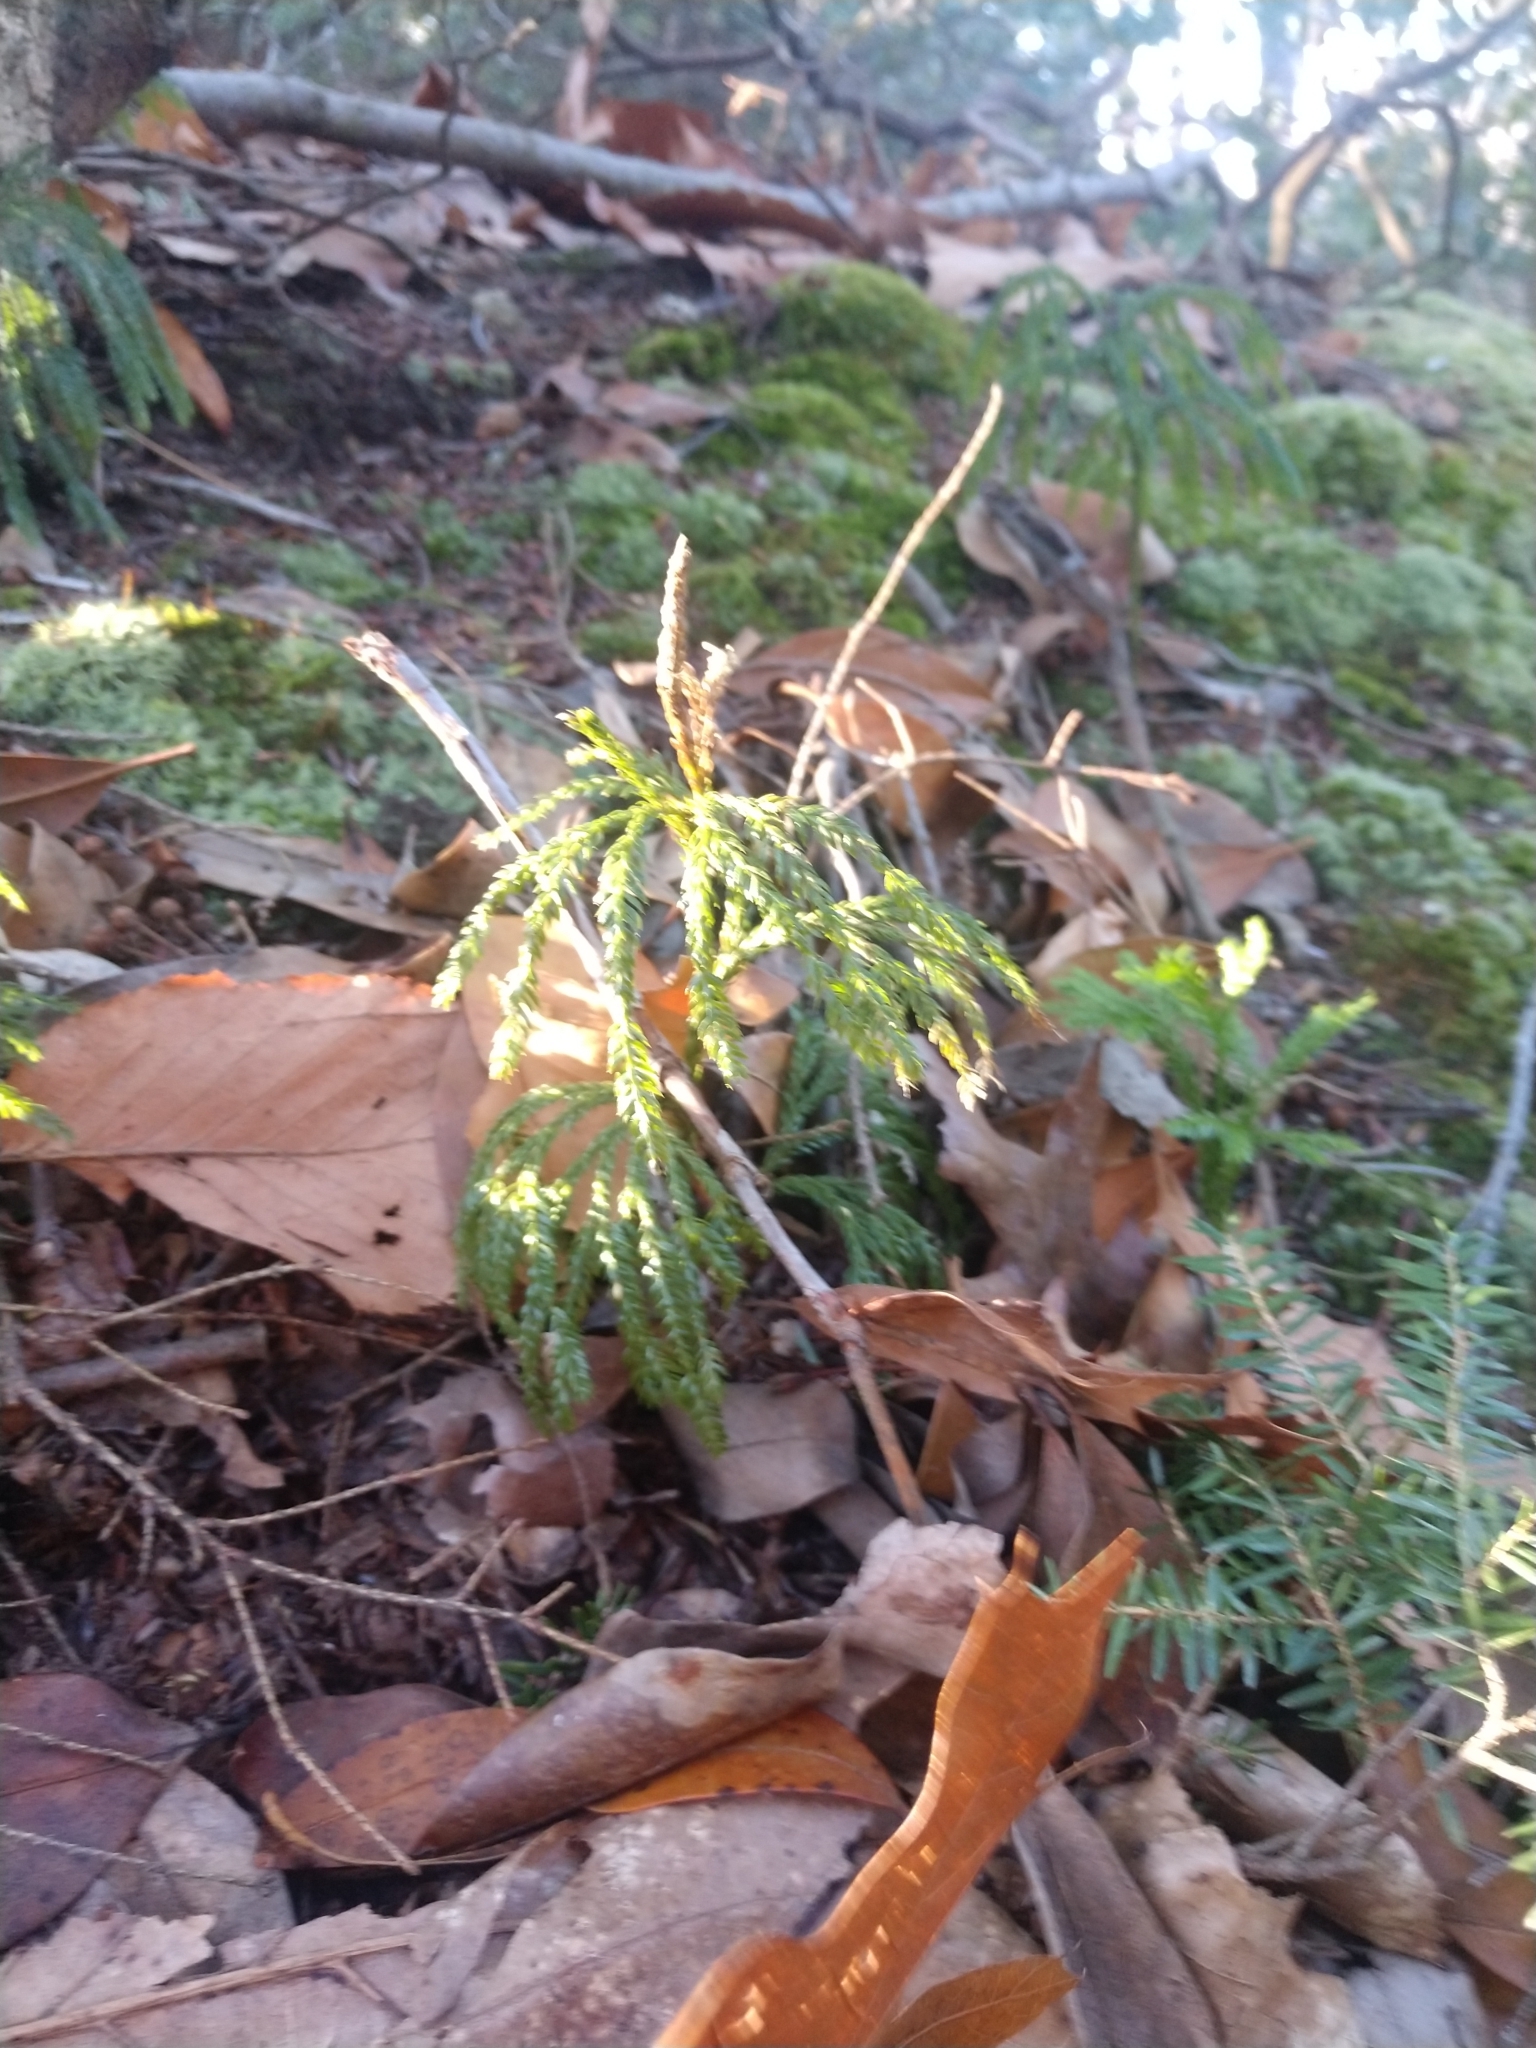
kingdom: Plantae
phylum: Tracheophyta
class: Lycopodiopsida
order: Lycopodiales
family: Lycopodiaceae
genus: Dendrolycopodium
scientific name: Dendrolycopodium obscurum
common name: Common ground-pine
